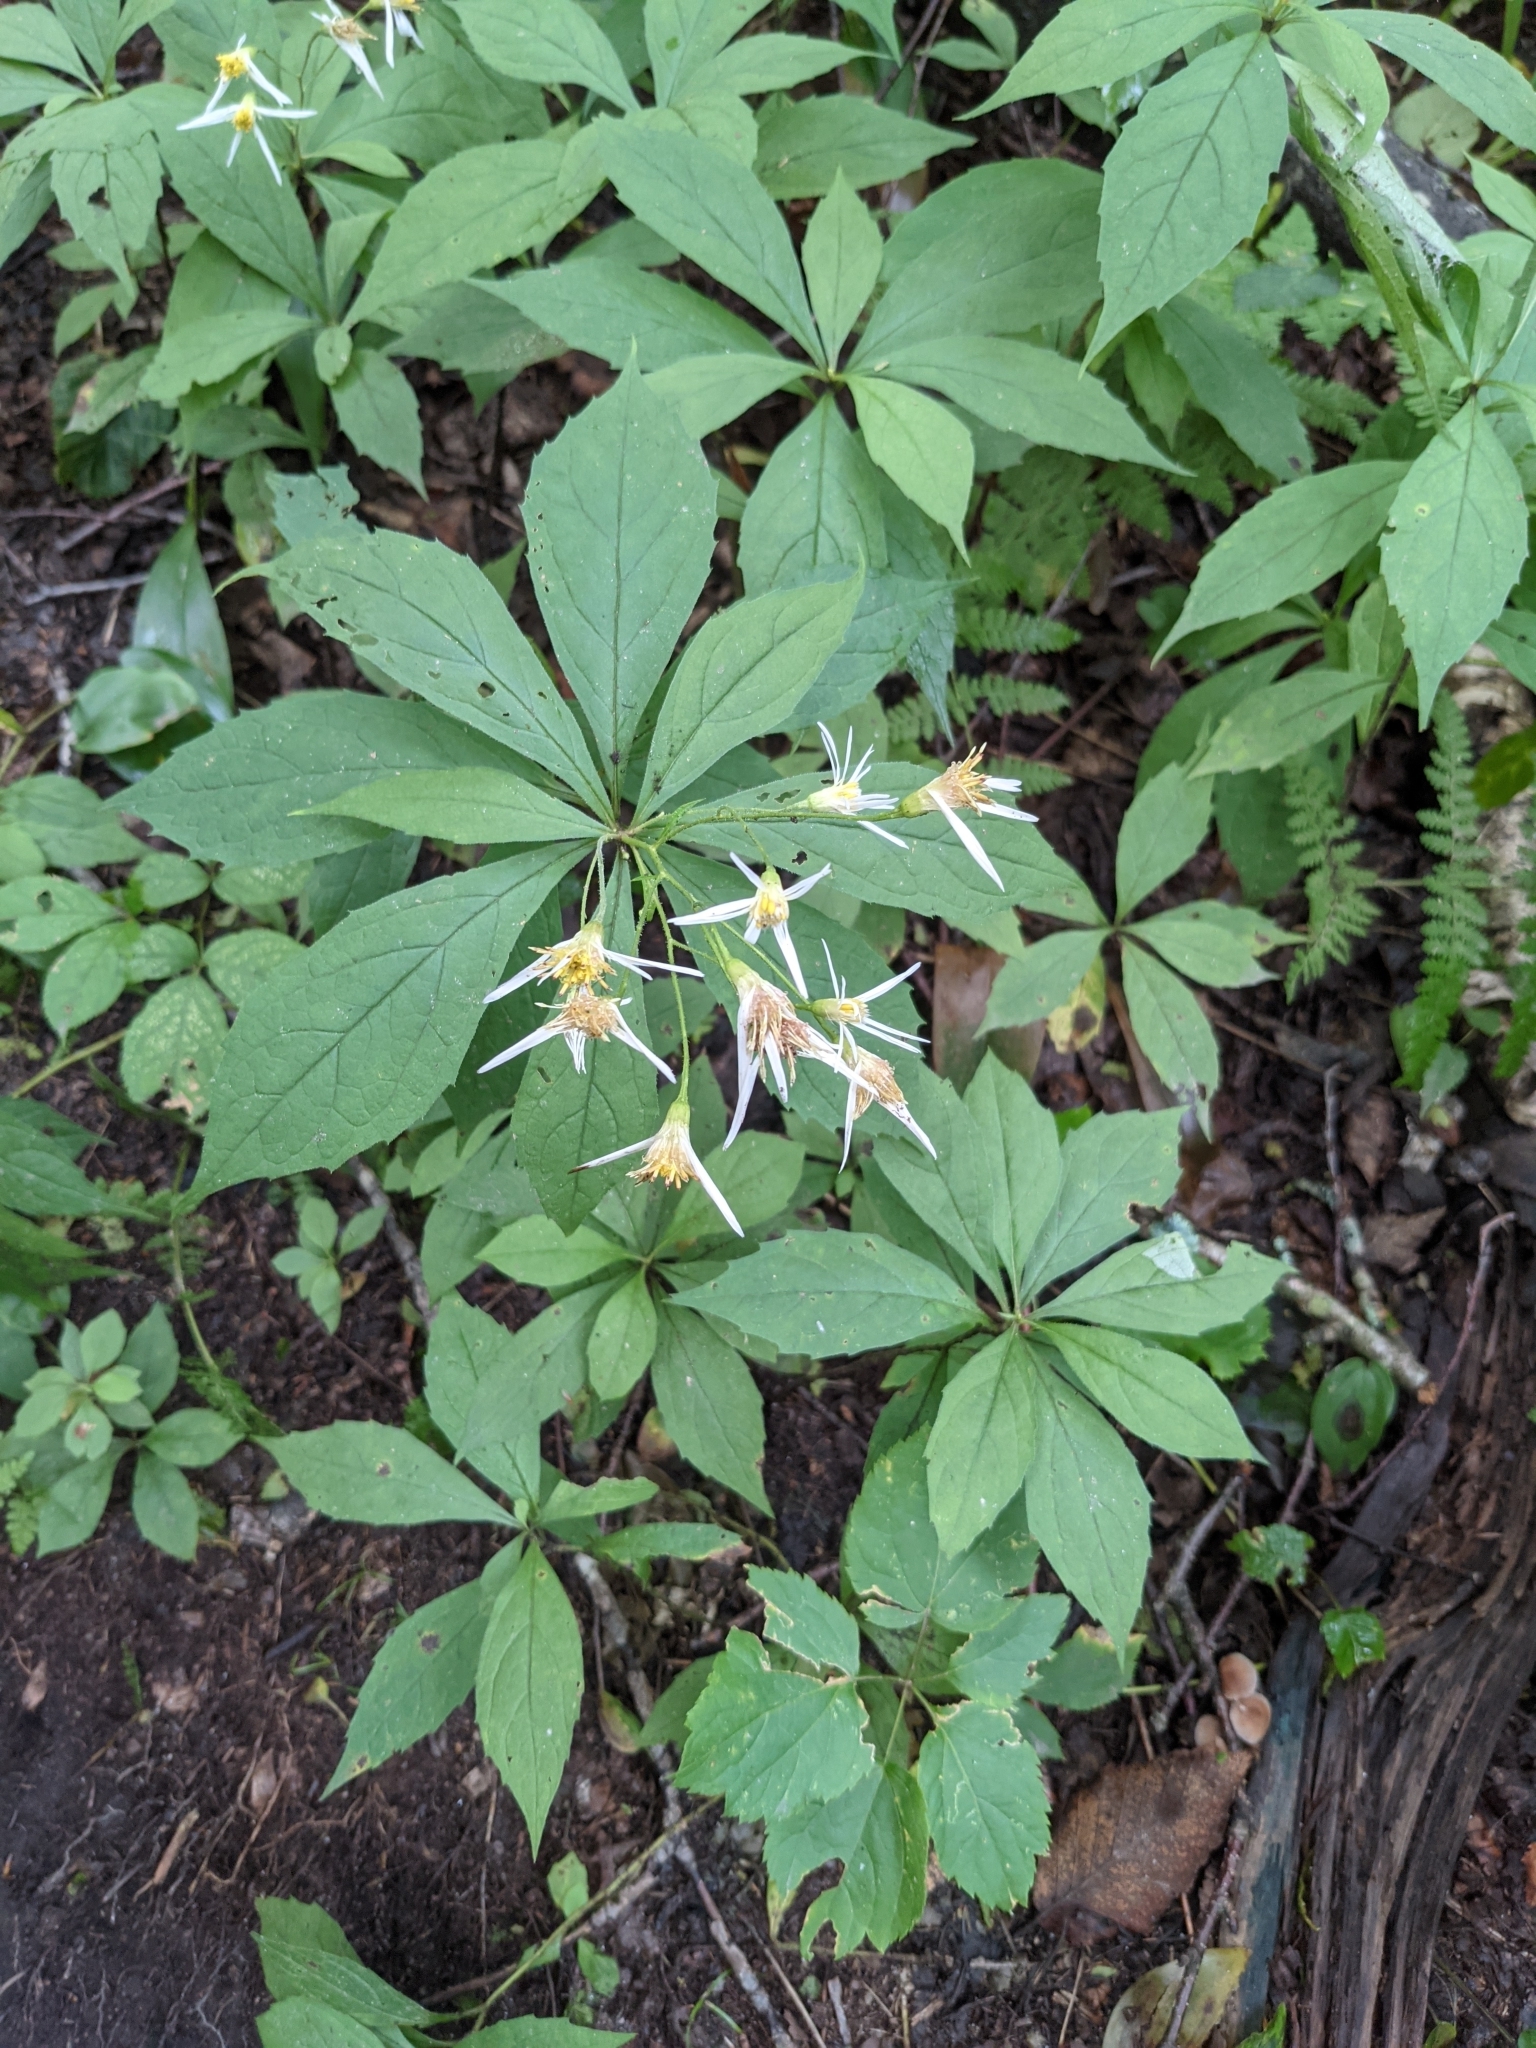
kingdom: Plantae
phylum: Tracheophyta
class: Magnoliopsida
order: Asterales
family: Asteraceae
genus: Oclemena
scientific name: Oclemena acuminata
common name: Mountain aster
